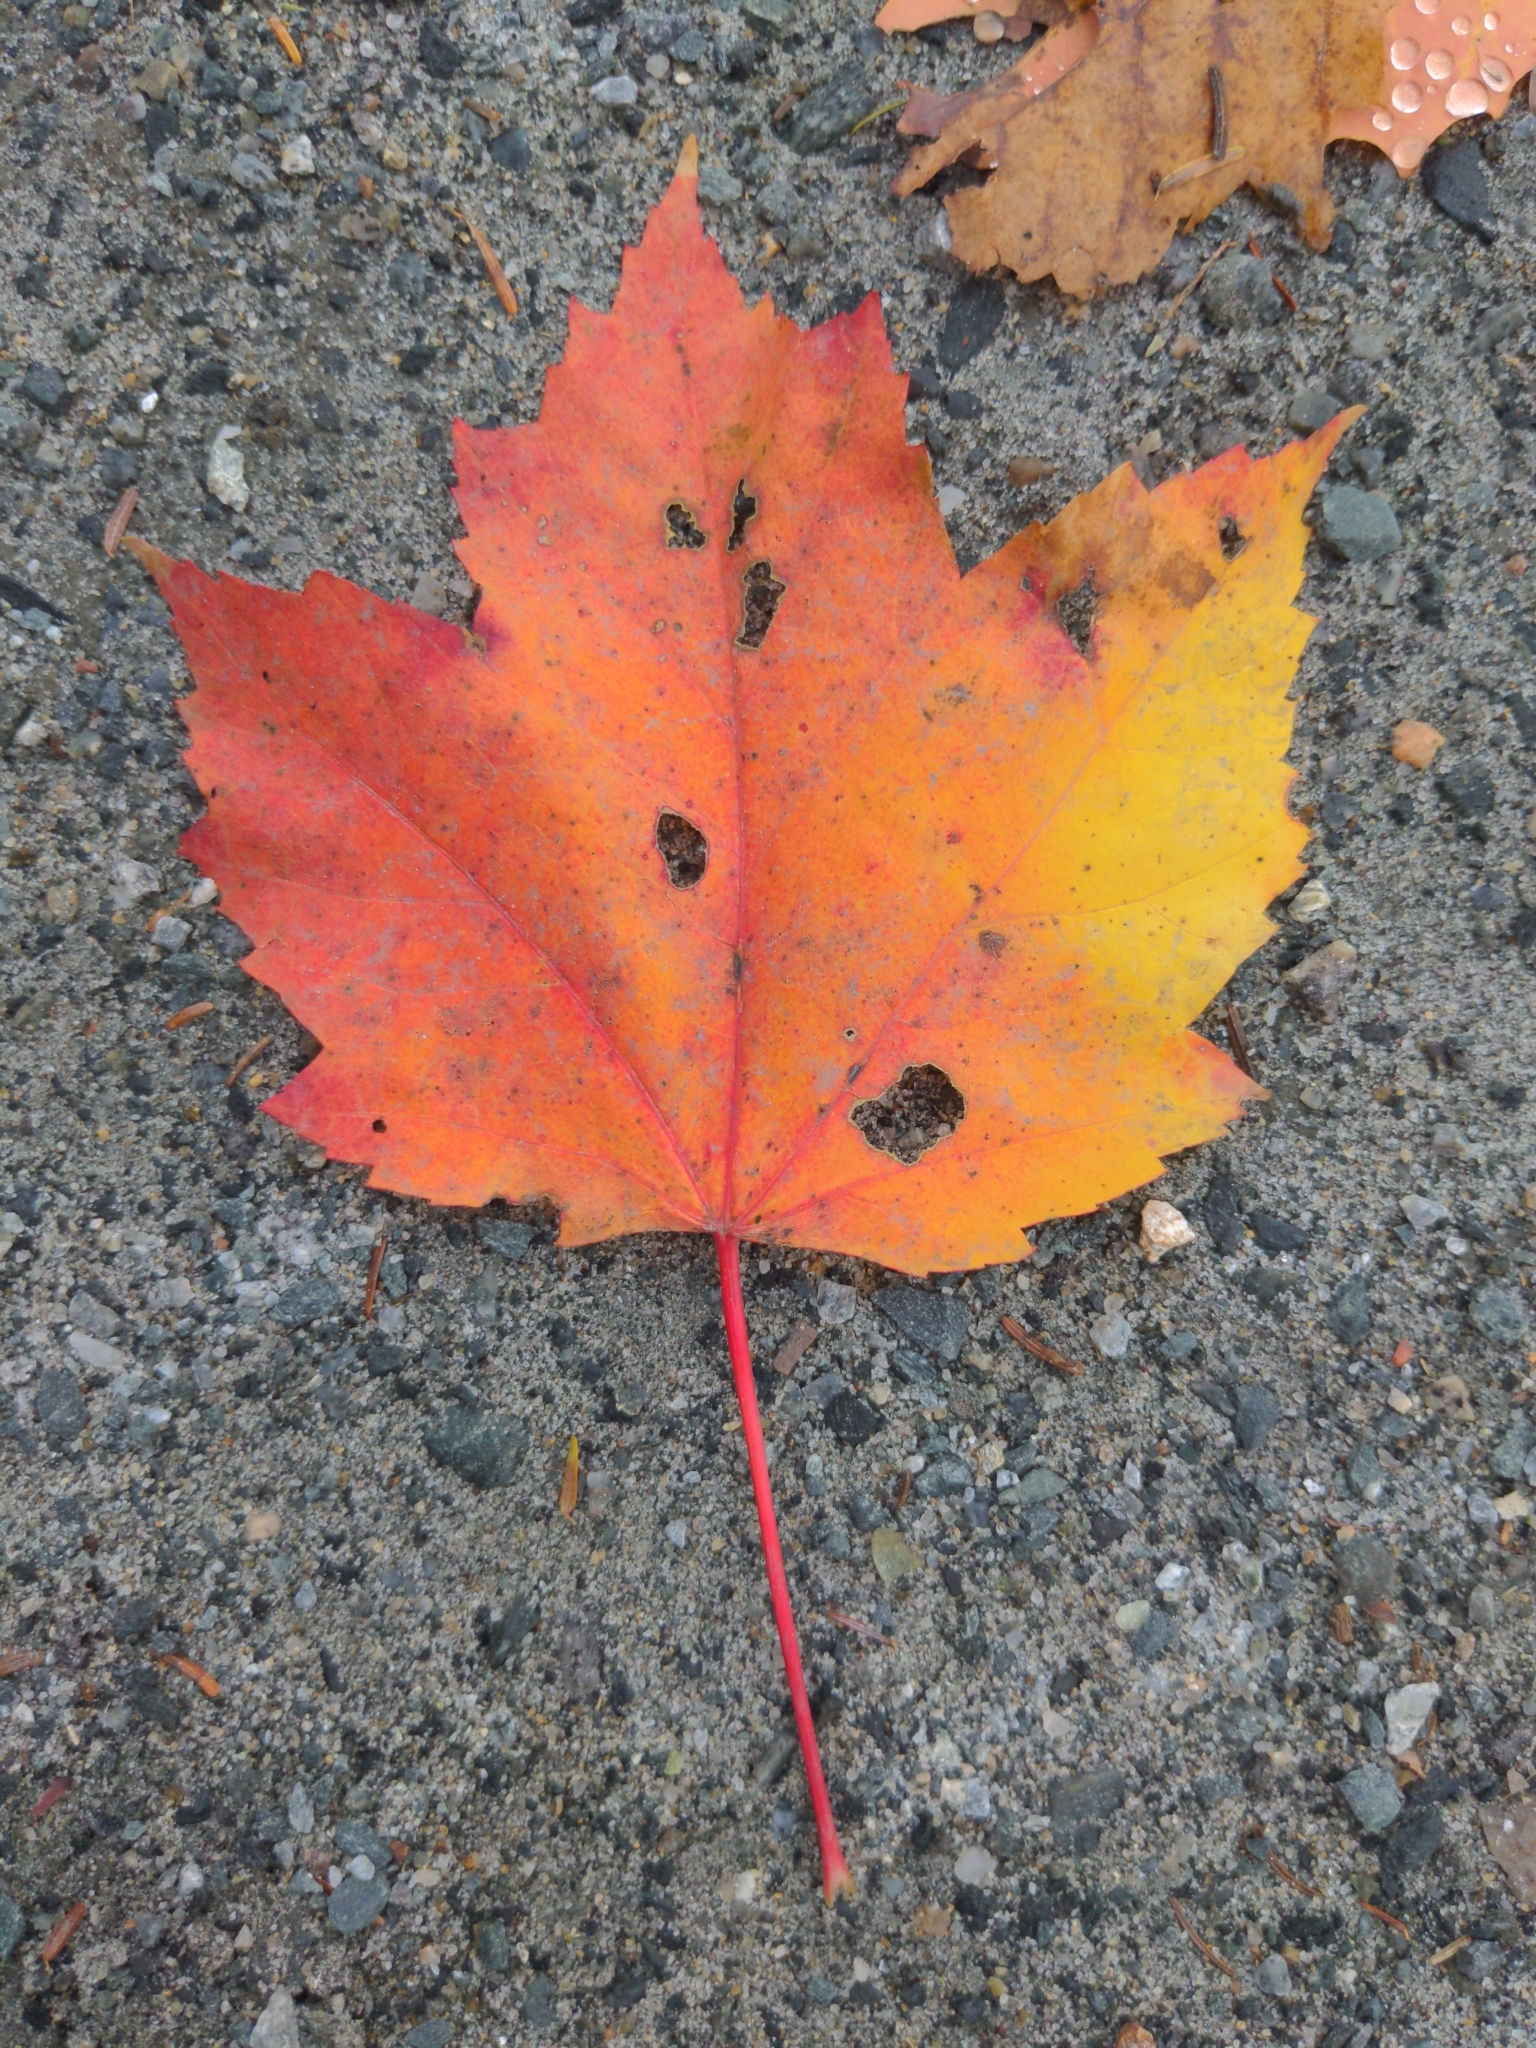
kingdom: Plantae
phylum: Tracheophyta
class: Magnoliopsida
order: Sapindales
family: Sapindaceae
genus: Acer
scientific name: Acer rubrum
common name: Red maple
